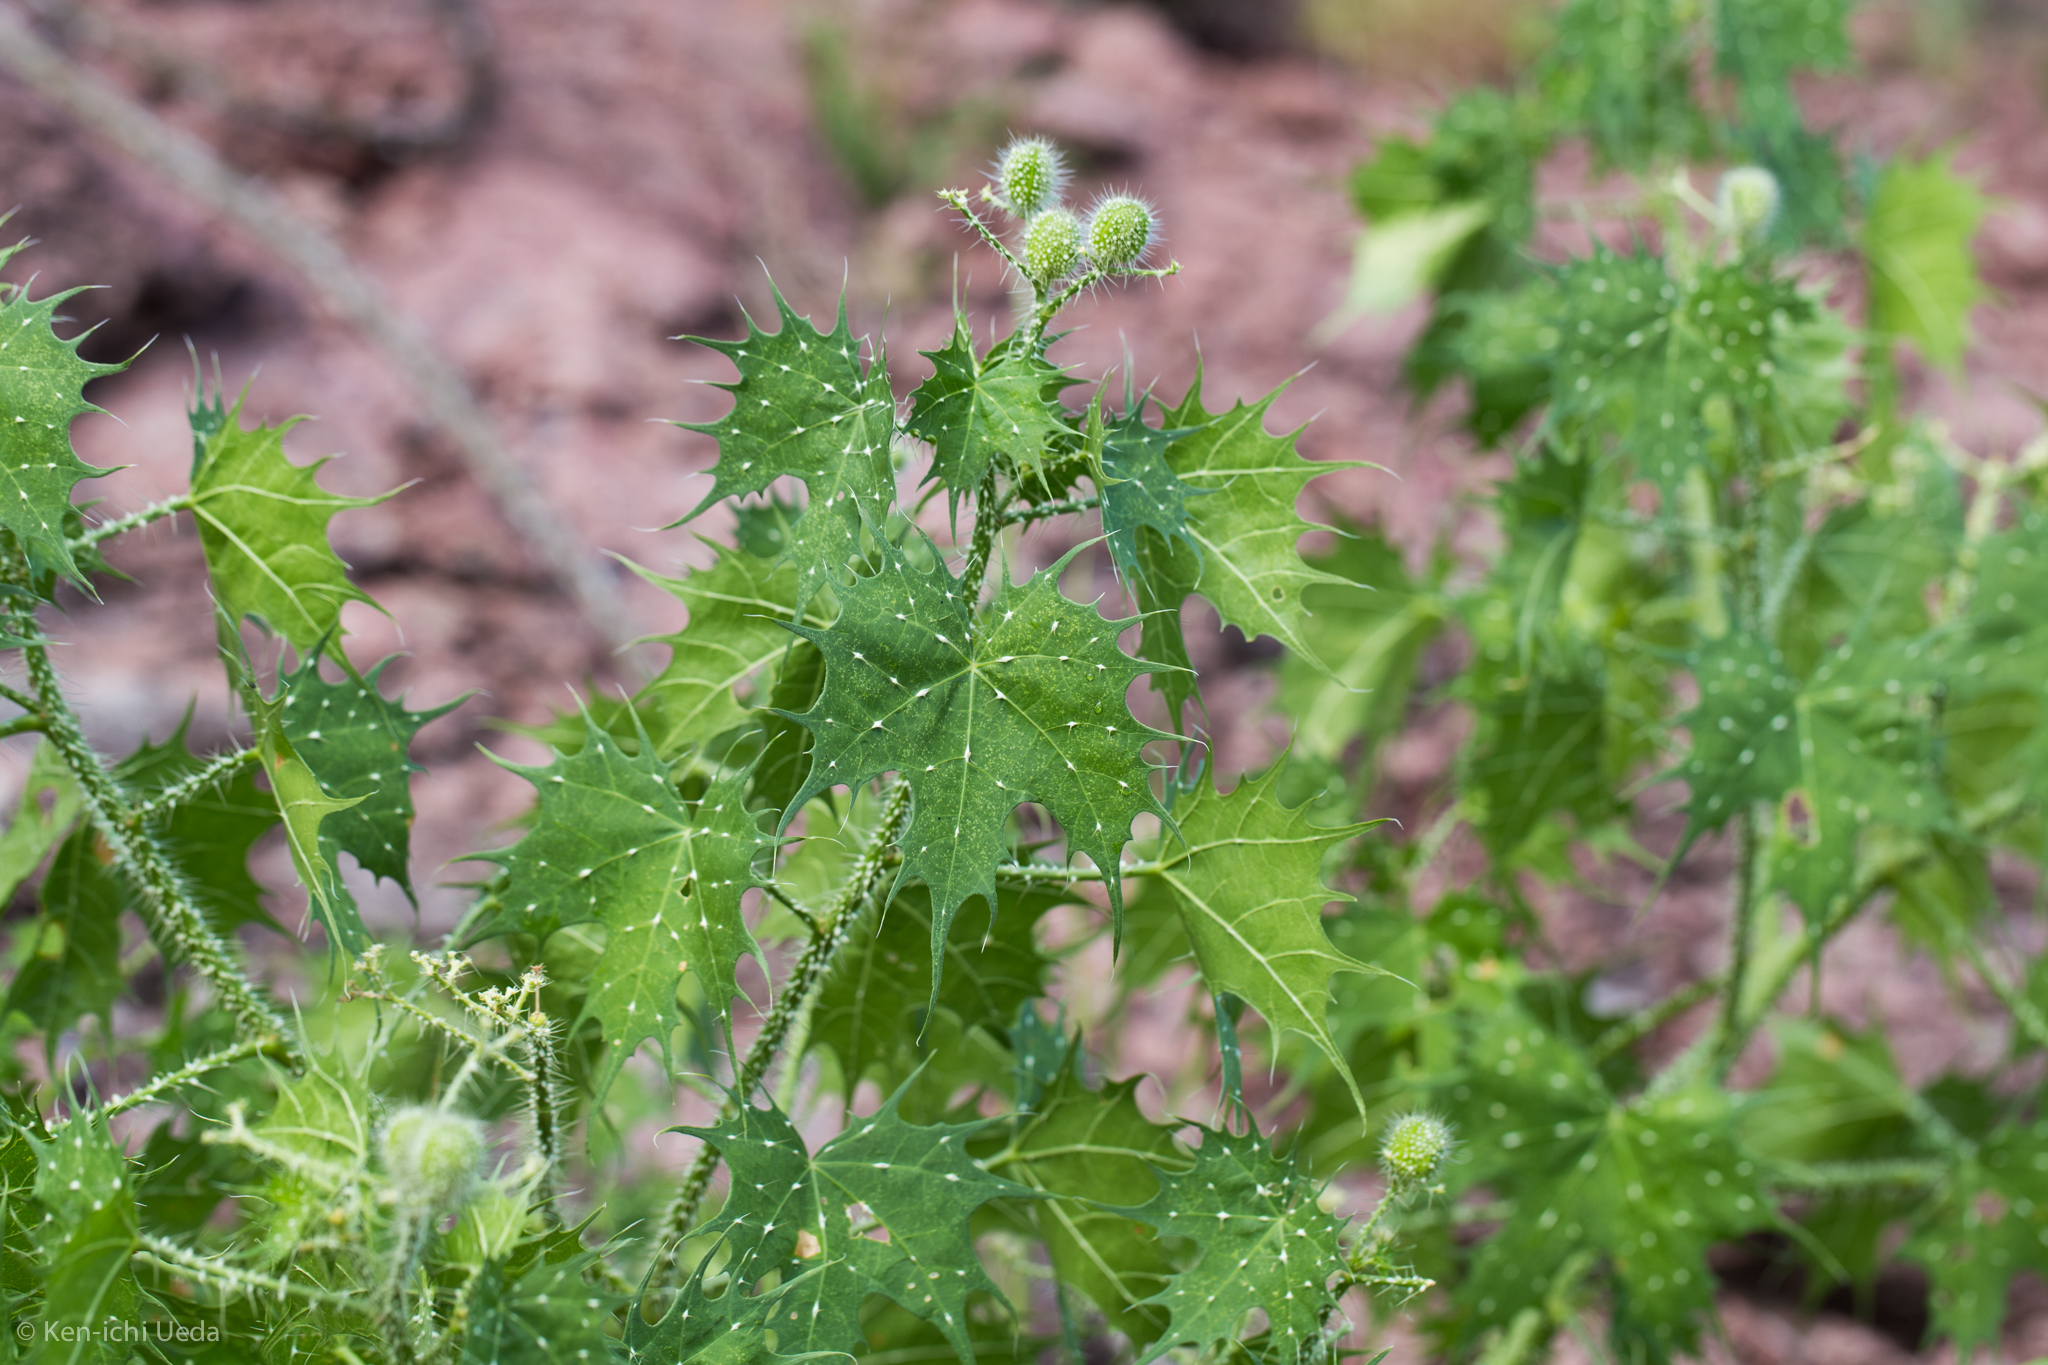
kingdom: Plantae
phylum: Tracheophyta
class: Magnoliopsida
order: Malpighiales
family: Euphorbiaceae
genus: Cnidoscolus
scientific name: Cnidoscolus angustidens
